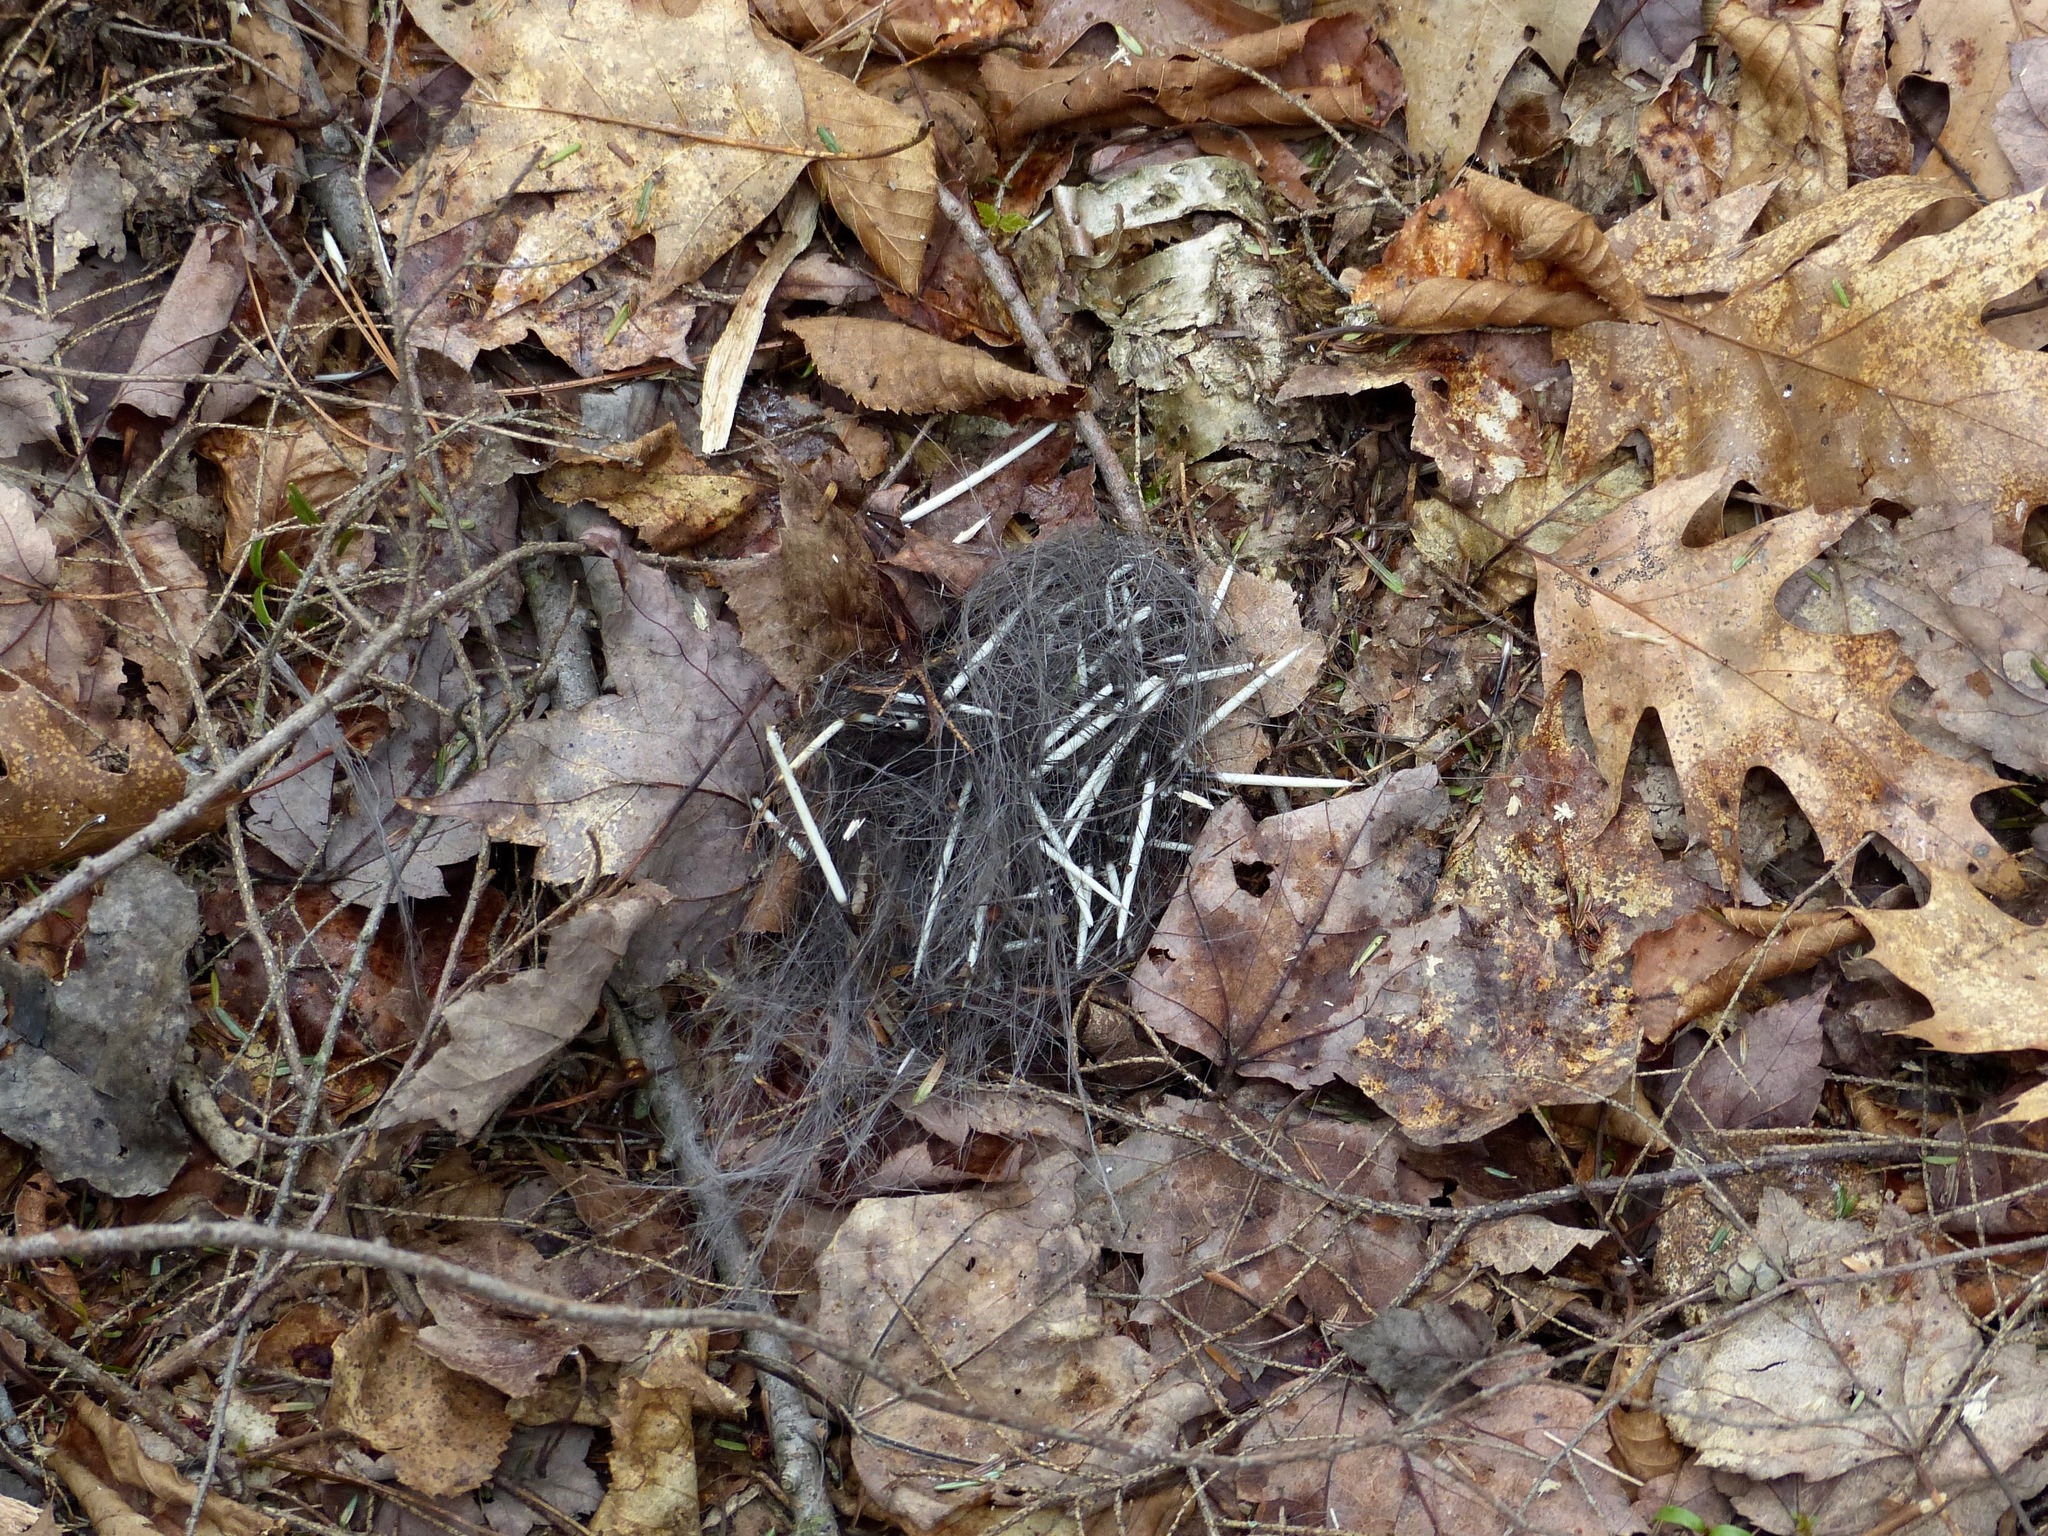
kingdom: Animalia
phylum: Chordata
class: Mammalia
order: Rodentia
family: Erethizontidae
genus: Erethizon
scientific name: Erethizon dorsatus
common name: North american porcupine
